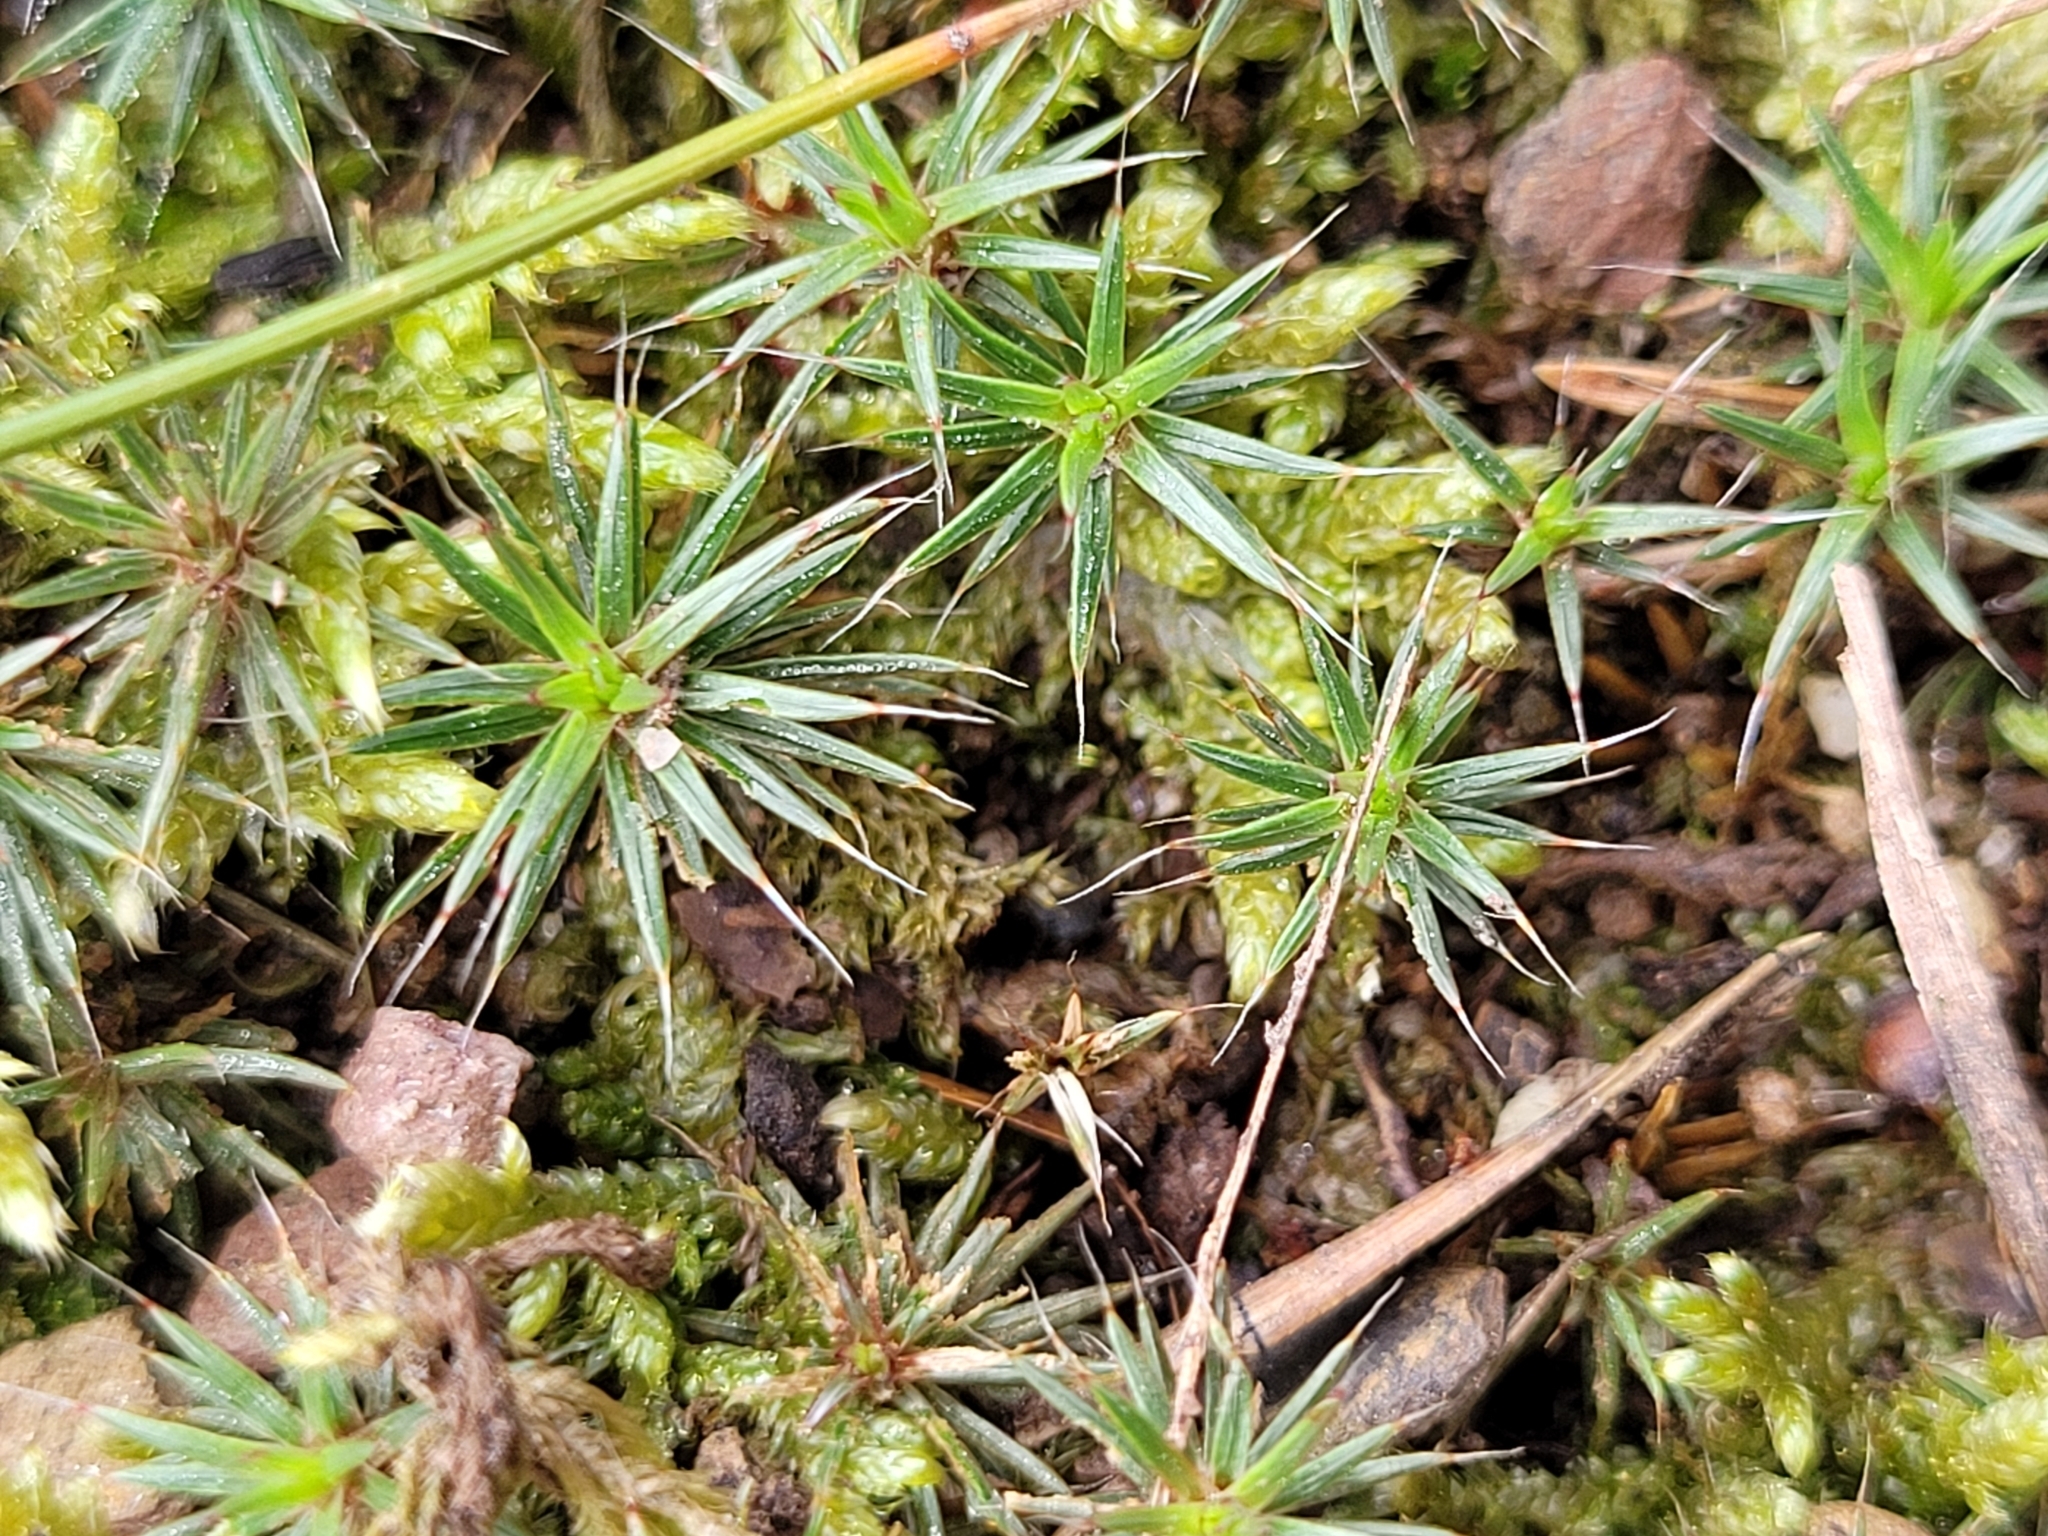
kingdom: Plantae
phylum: Bryophyta
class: Polytrichopsida
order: Polytrichales
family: Polytrichaceae
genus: Polytrichum
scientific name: Polytrichum piliferum
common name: Bristly haircap
